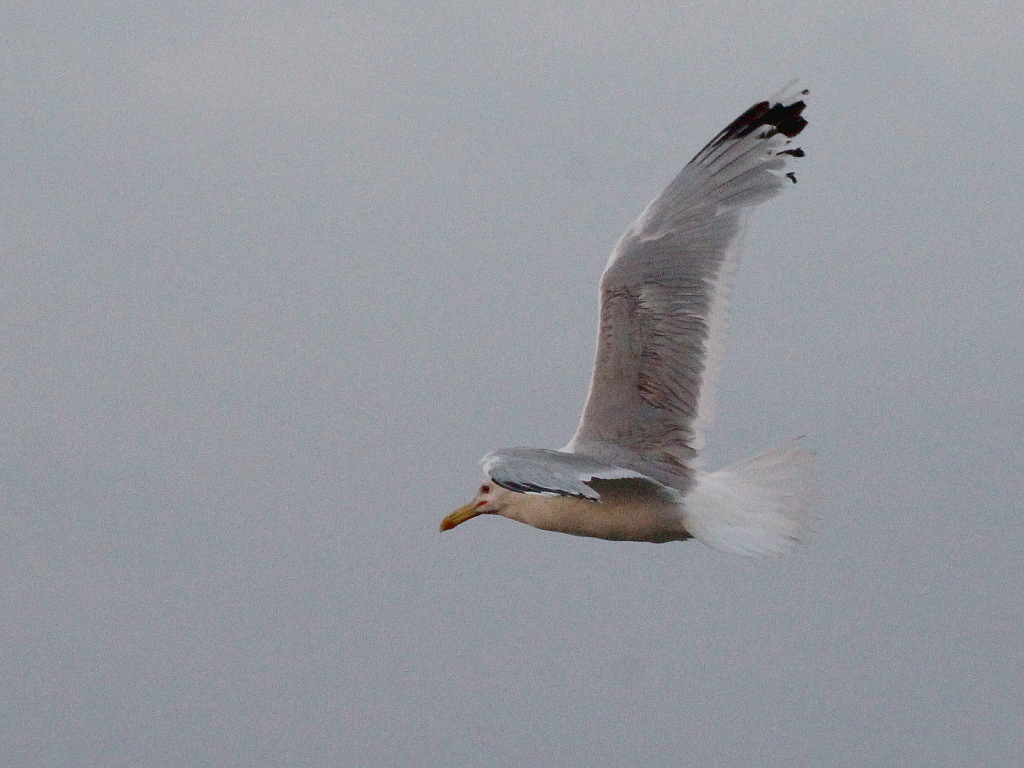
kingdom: Animalia
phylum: Chordata
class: Aves
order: Charadriiformes
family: Laridae
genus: Larus
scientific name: Larus cachinnans
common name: Caspian gull
